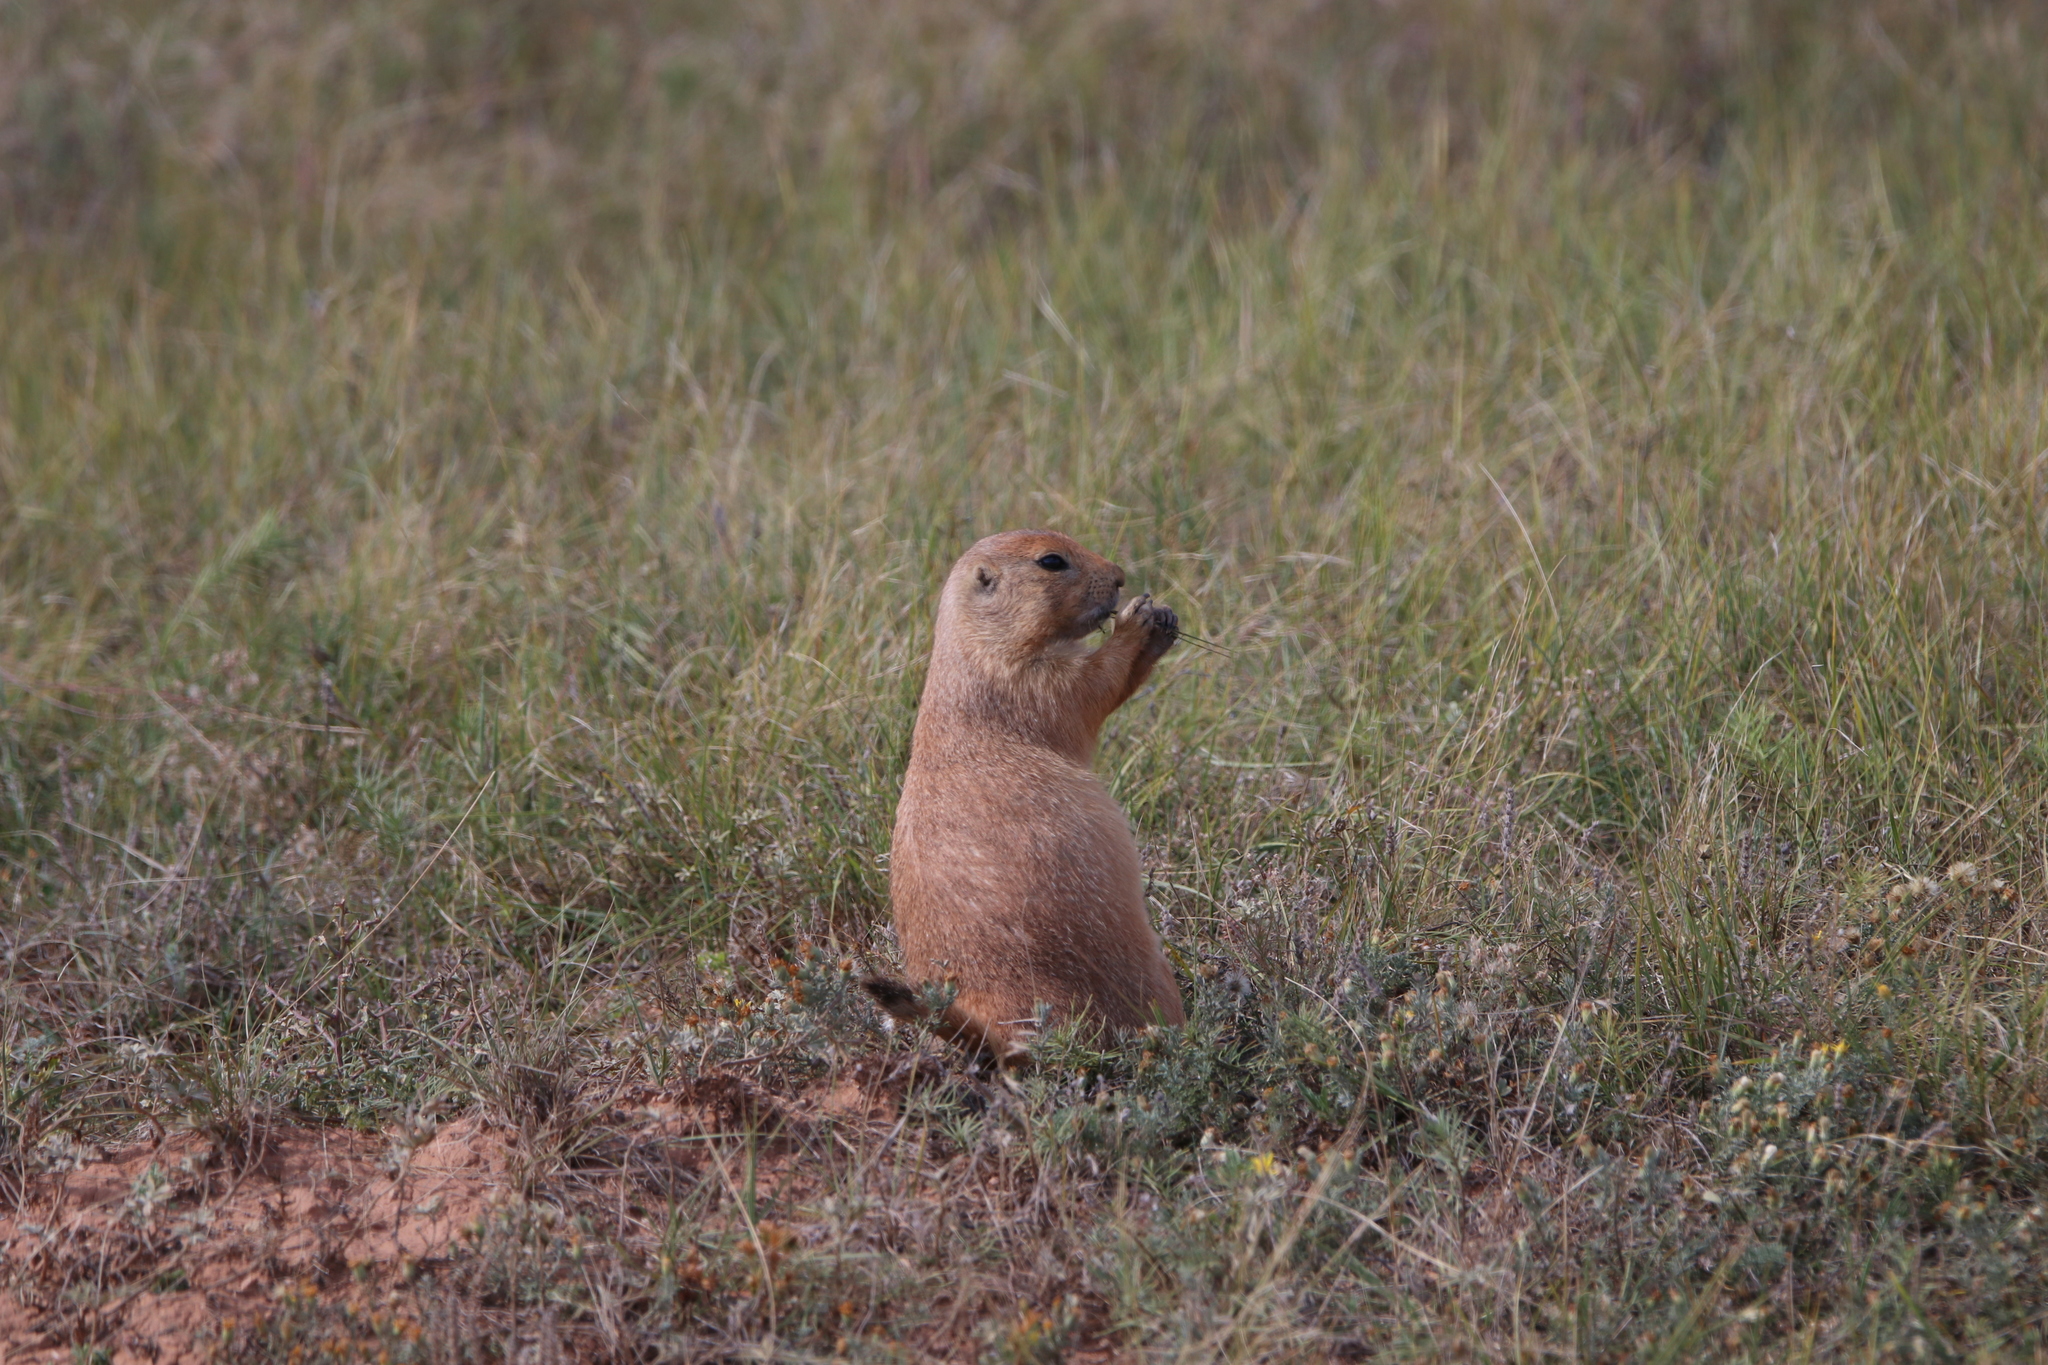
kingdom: Animalia
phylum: Chordata
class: Mammalia
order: Rodentia
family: Sciuridae
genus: Cynomys
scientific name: Cynomys ludovicianus
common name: Black-tailed prairie dog
